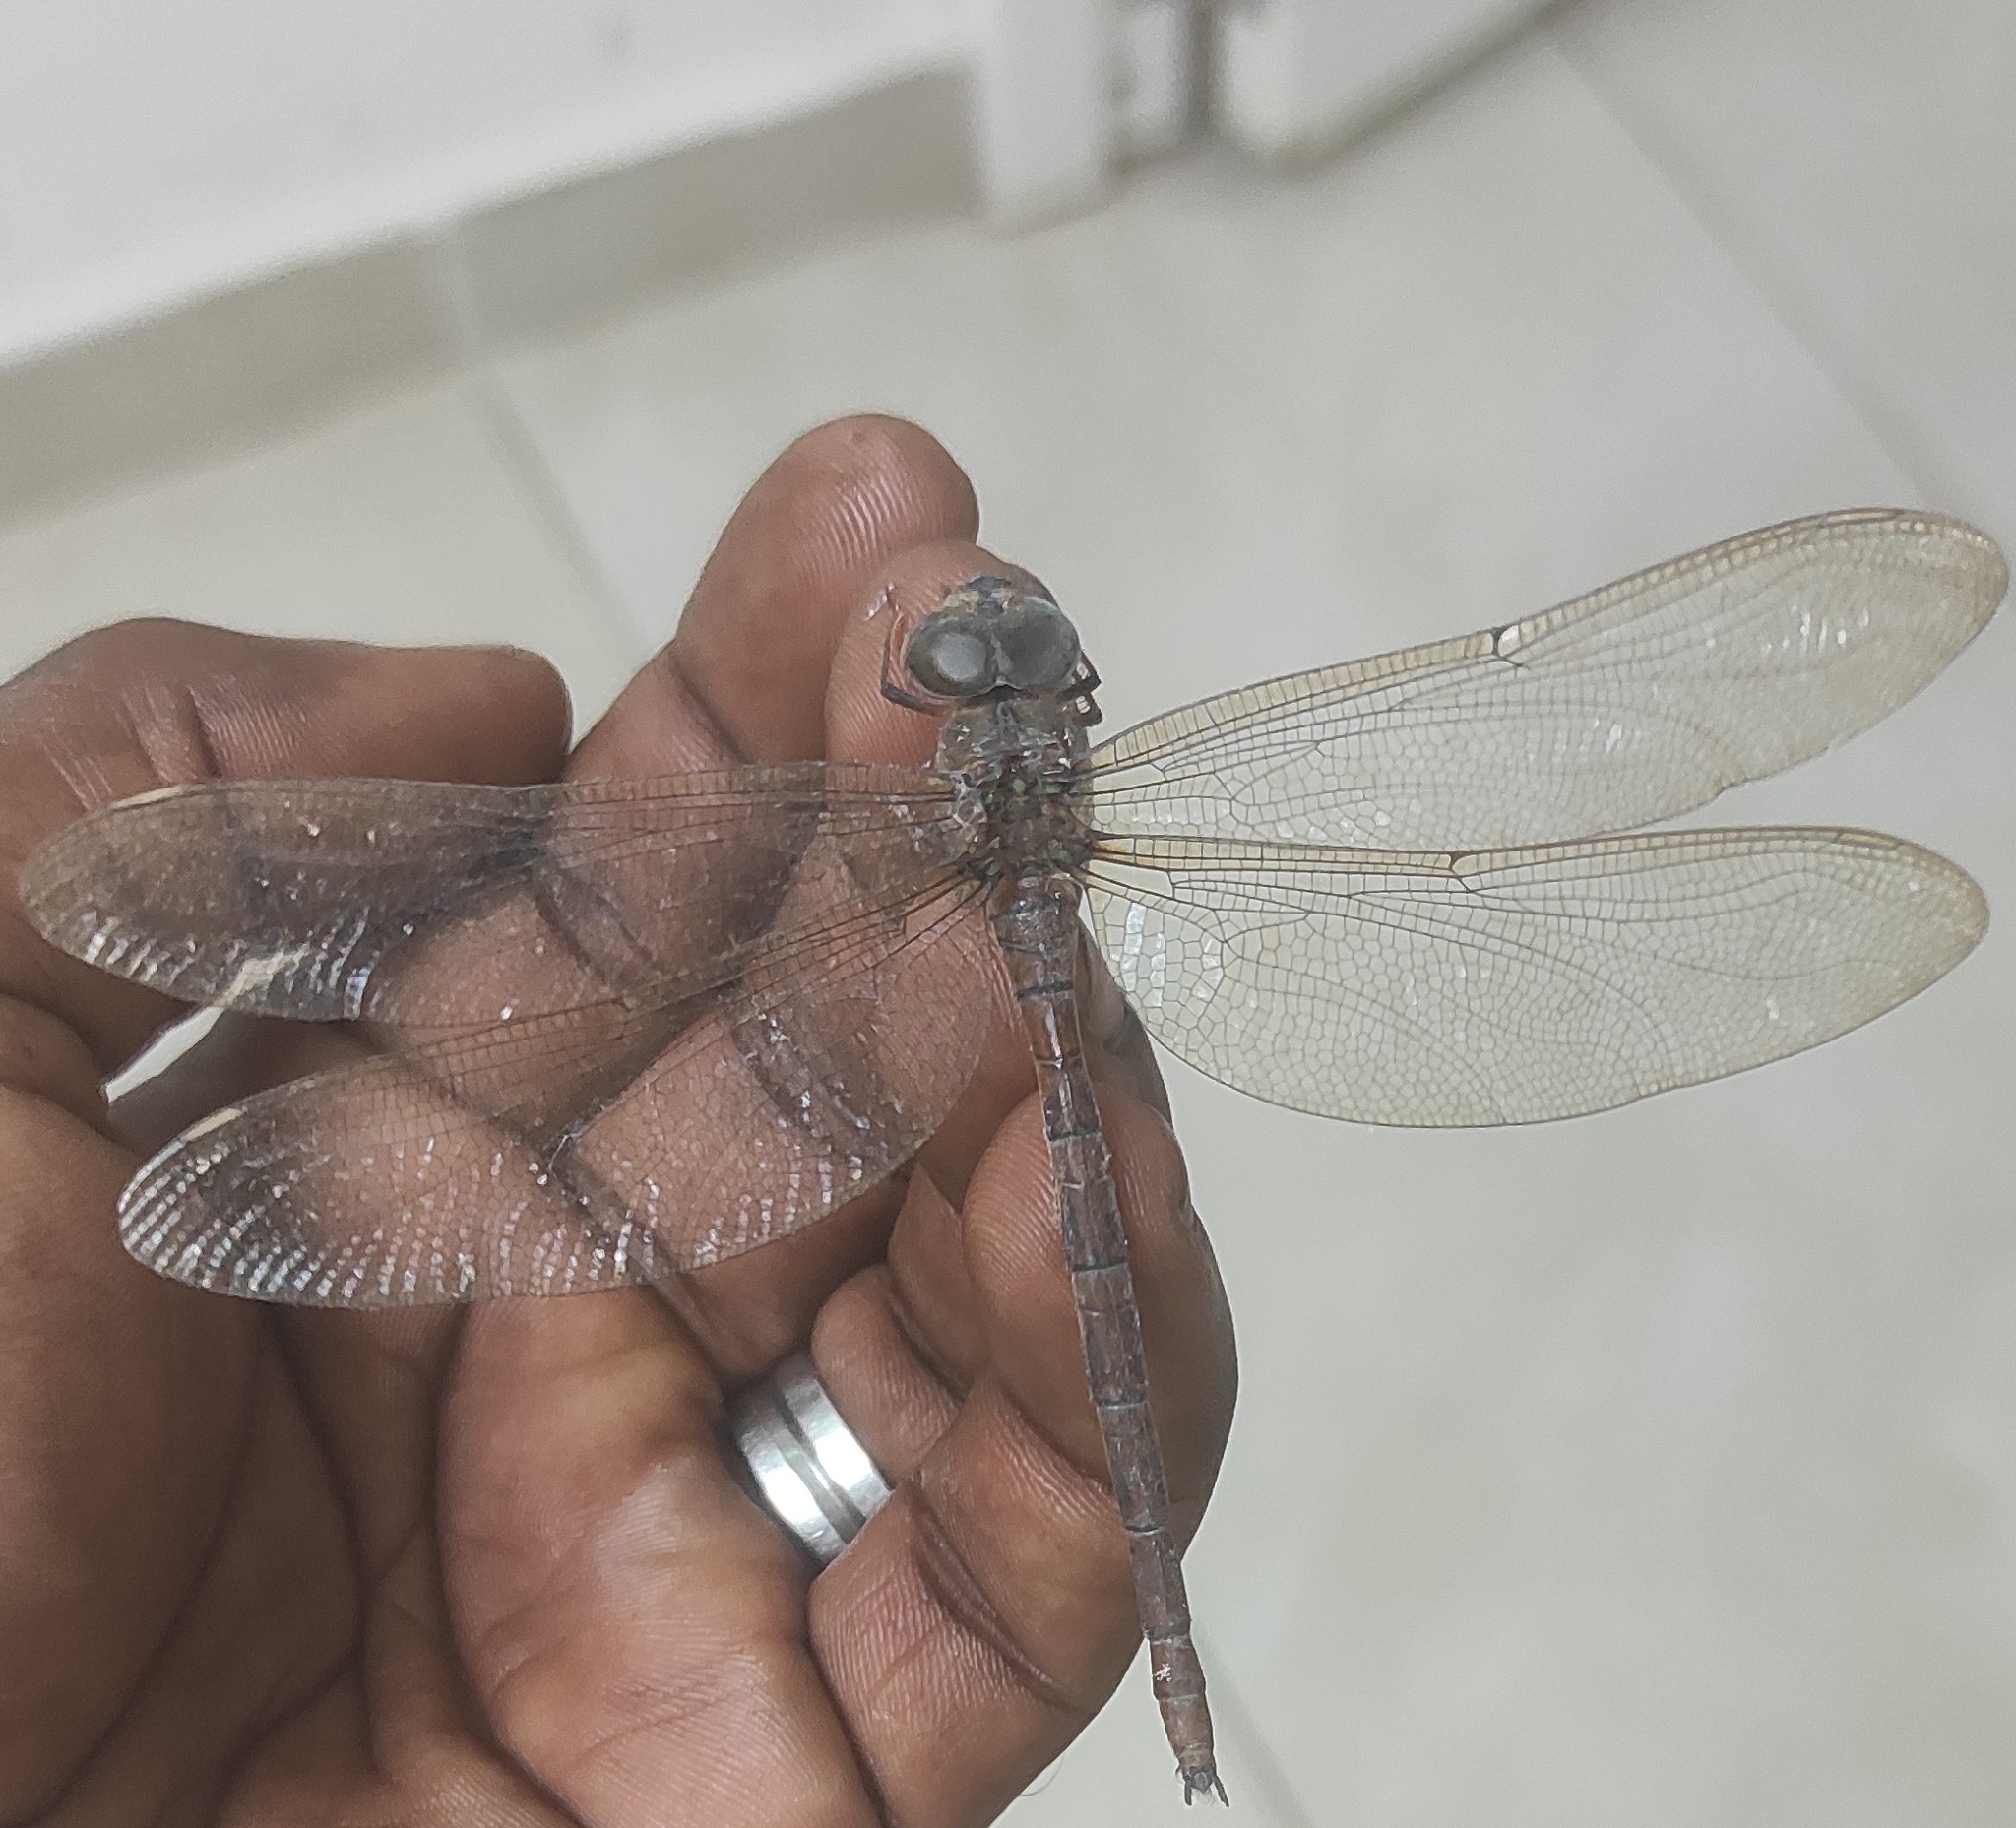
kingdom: Animalia
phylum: Arthropoda
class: Insecta
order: Odonata
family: Aeshnidae
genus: Gynacantha
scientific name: Gynacantha dravida
